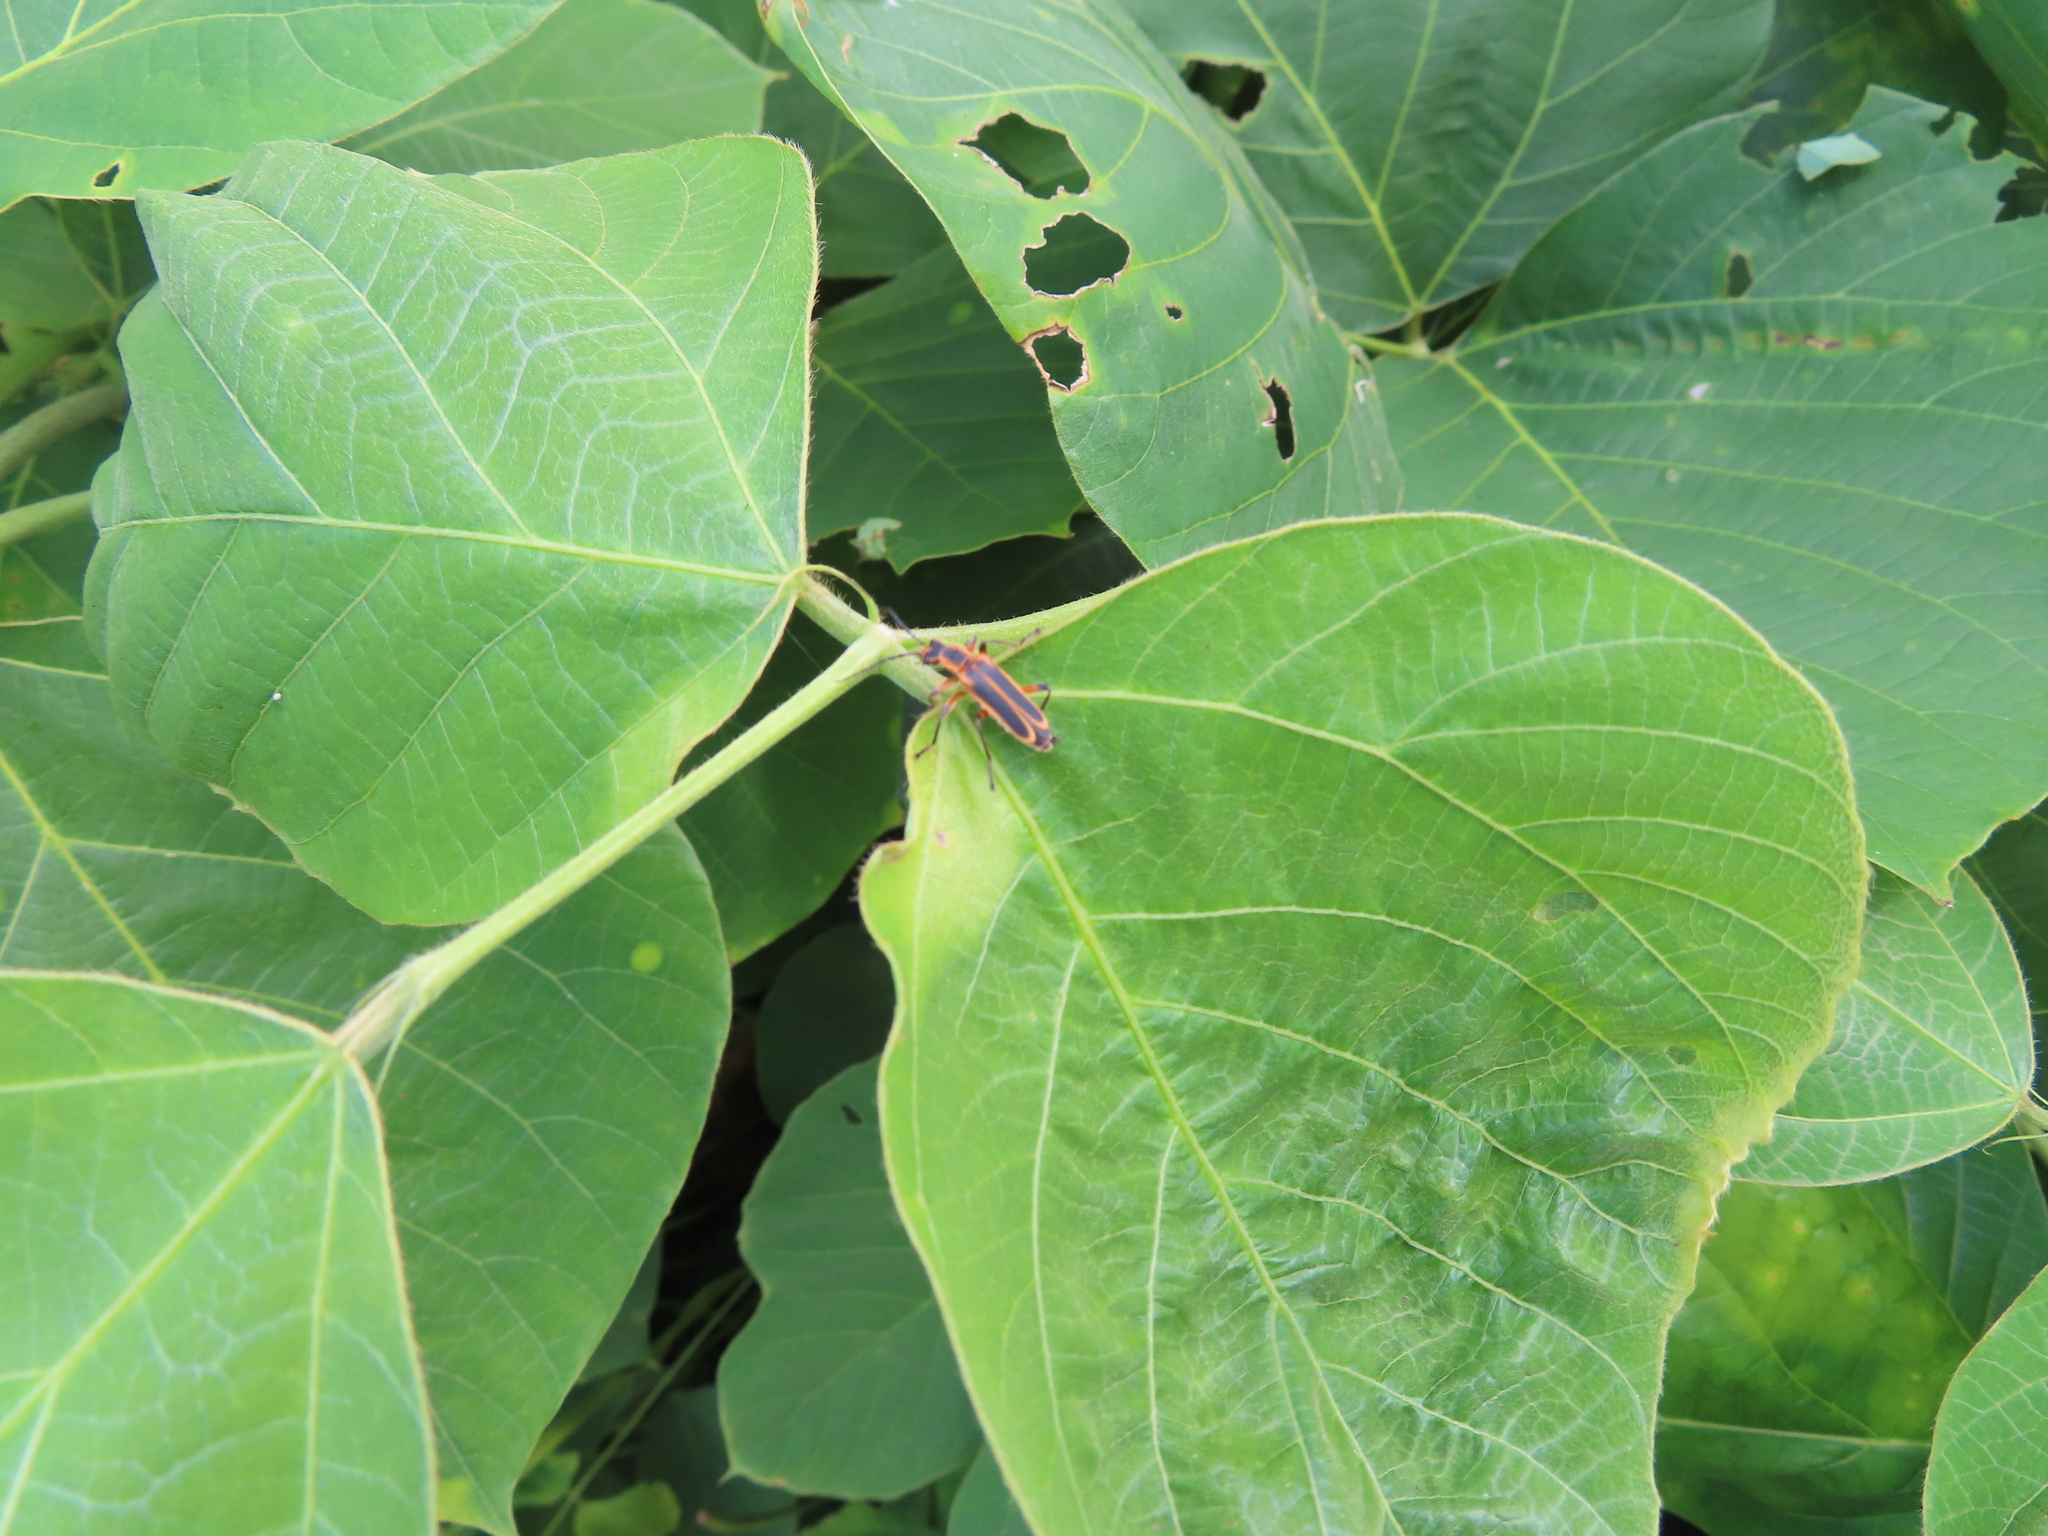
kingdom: Animalia
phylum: Arthropoda
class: Insecta
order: Coleoptera
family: Cantharidae
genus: Chauliognathus
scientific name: Chauliognathus marginatus
